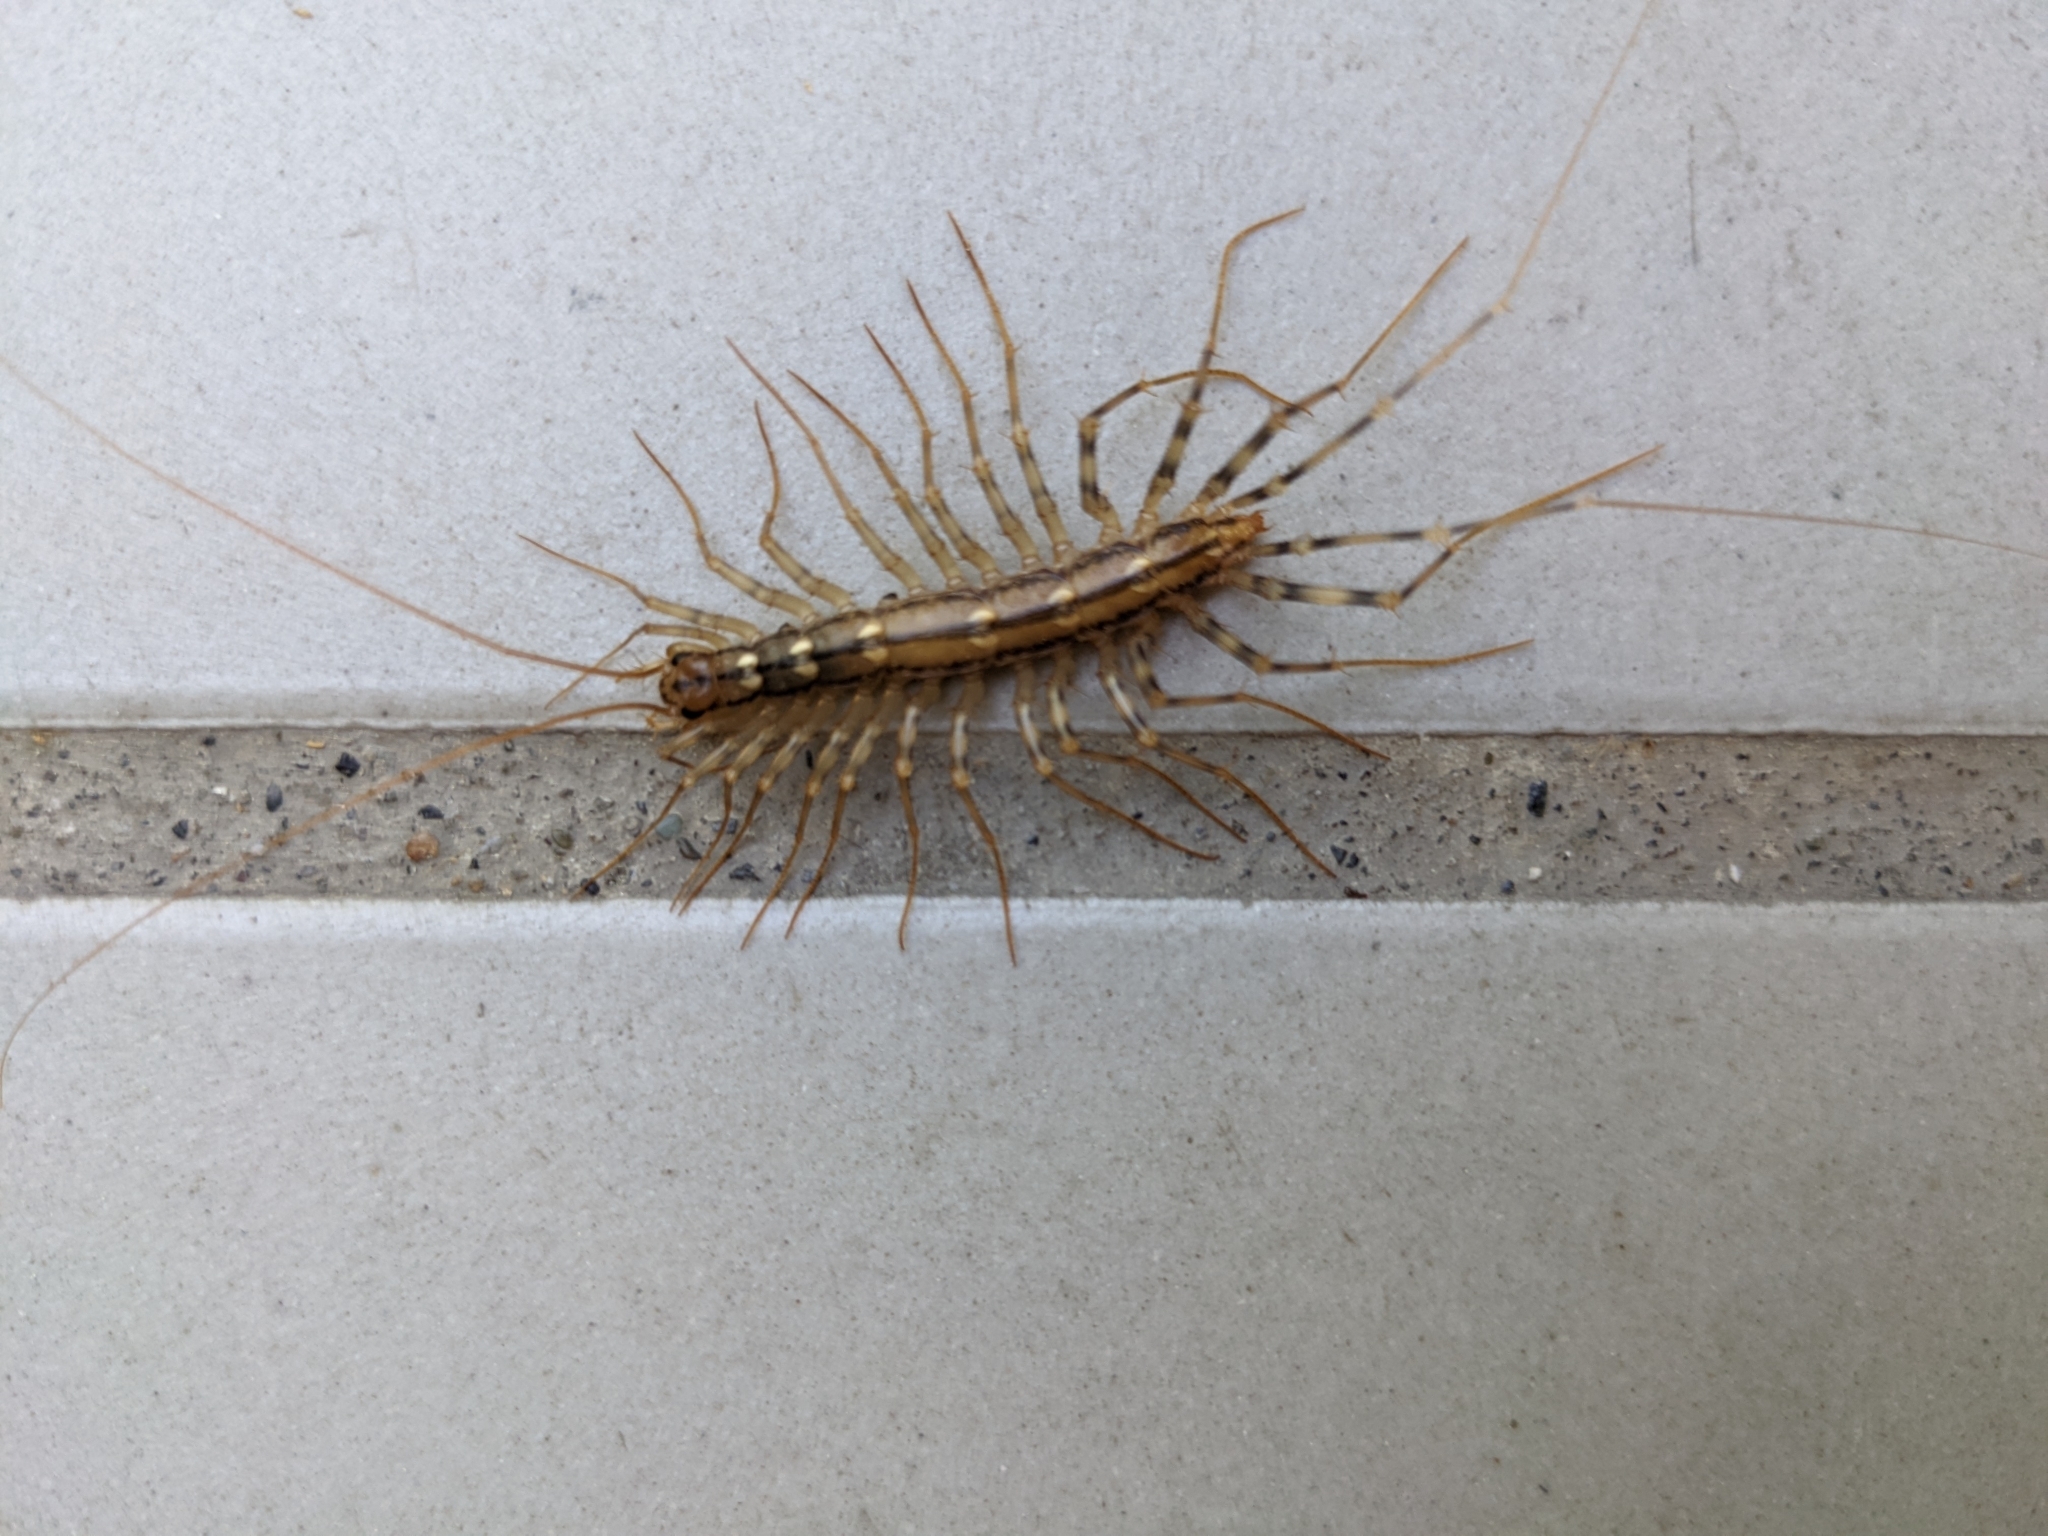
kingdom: Animalia
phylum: Arthropoda
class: Chilopoda
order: Scutigeromorpha
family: Scutigeridae
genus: Scutigera
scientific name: Scutigera coleoptrata
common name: House centipede
